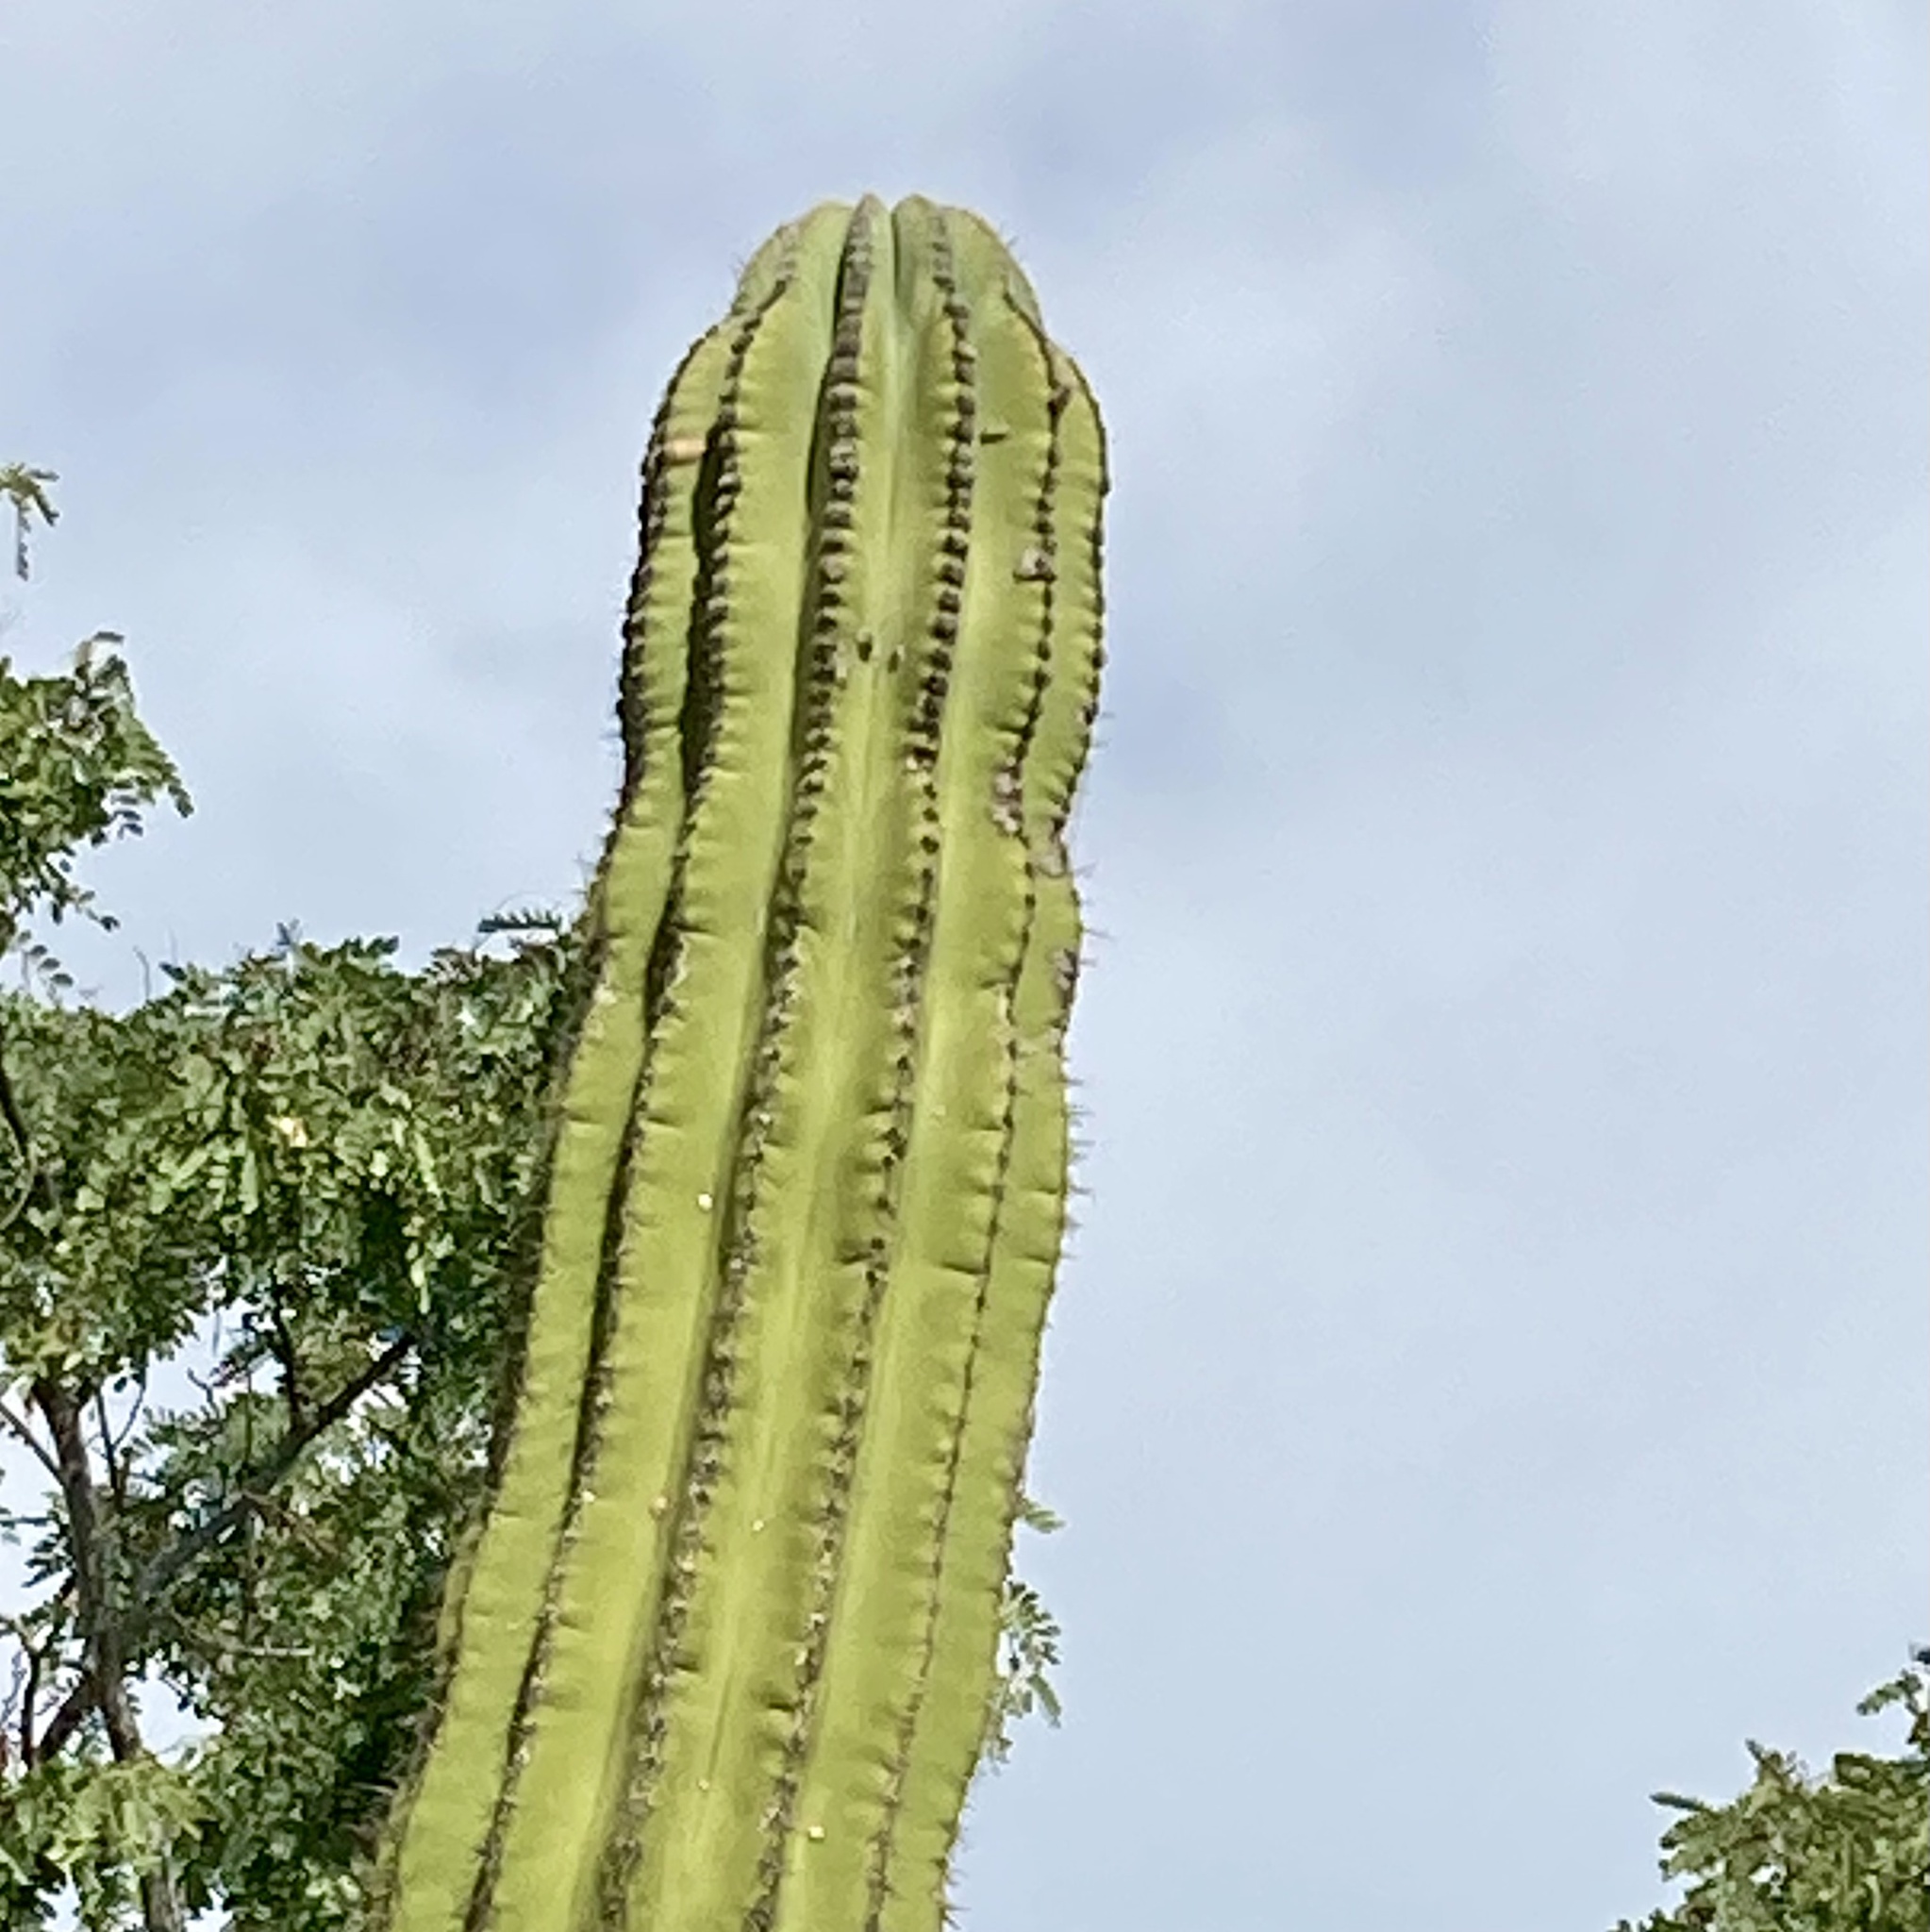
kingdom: Plantae
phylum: Tracheophyta
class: Magnoliopsida
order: Caryophyllales
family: Cactaceae
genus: Pachycereus
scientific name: Pachycereus pringlei
